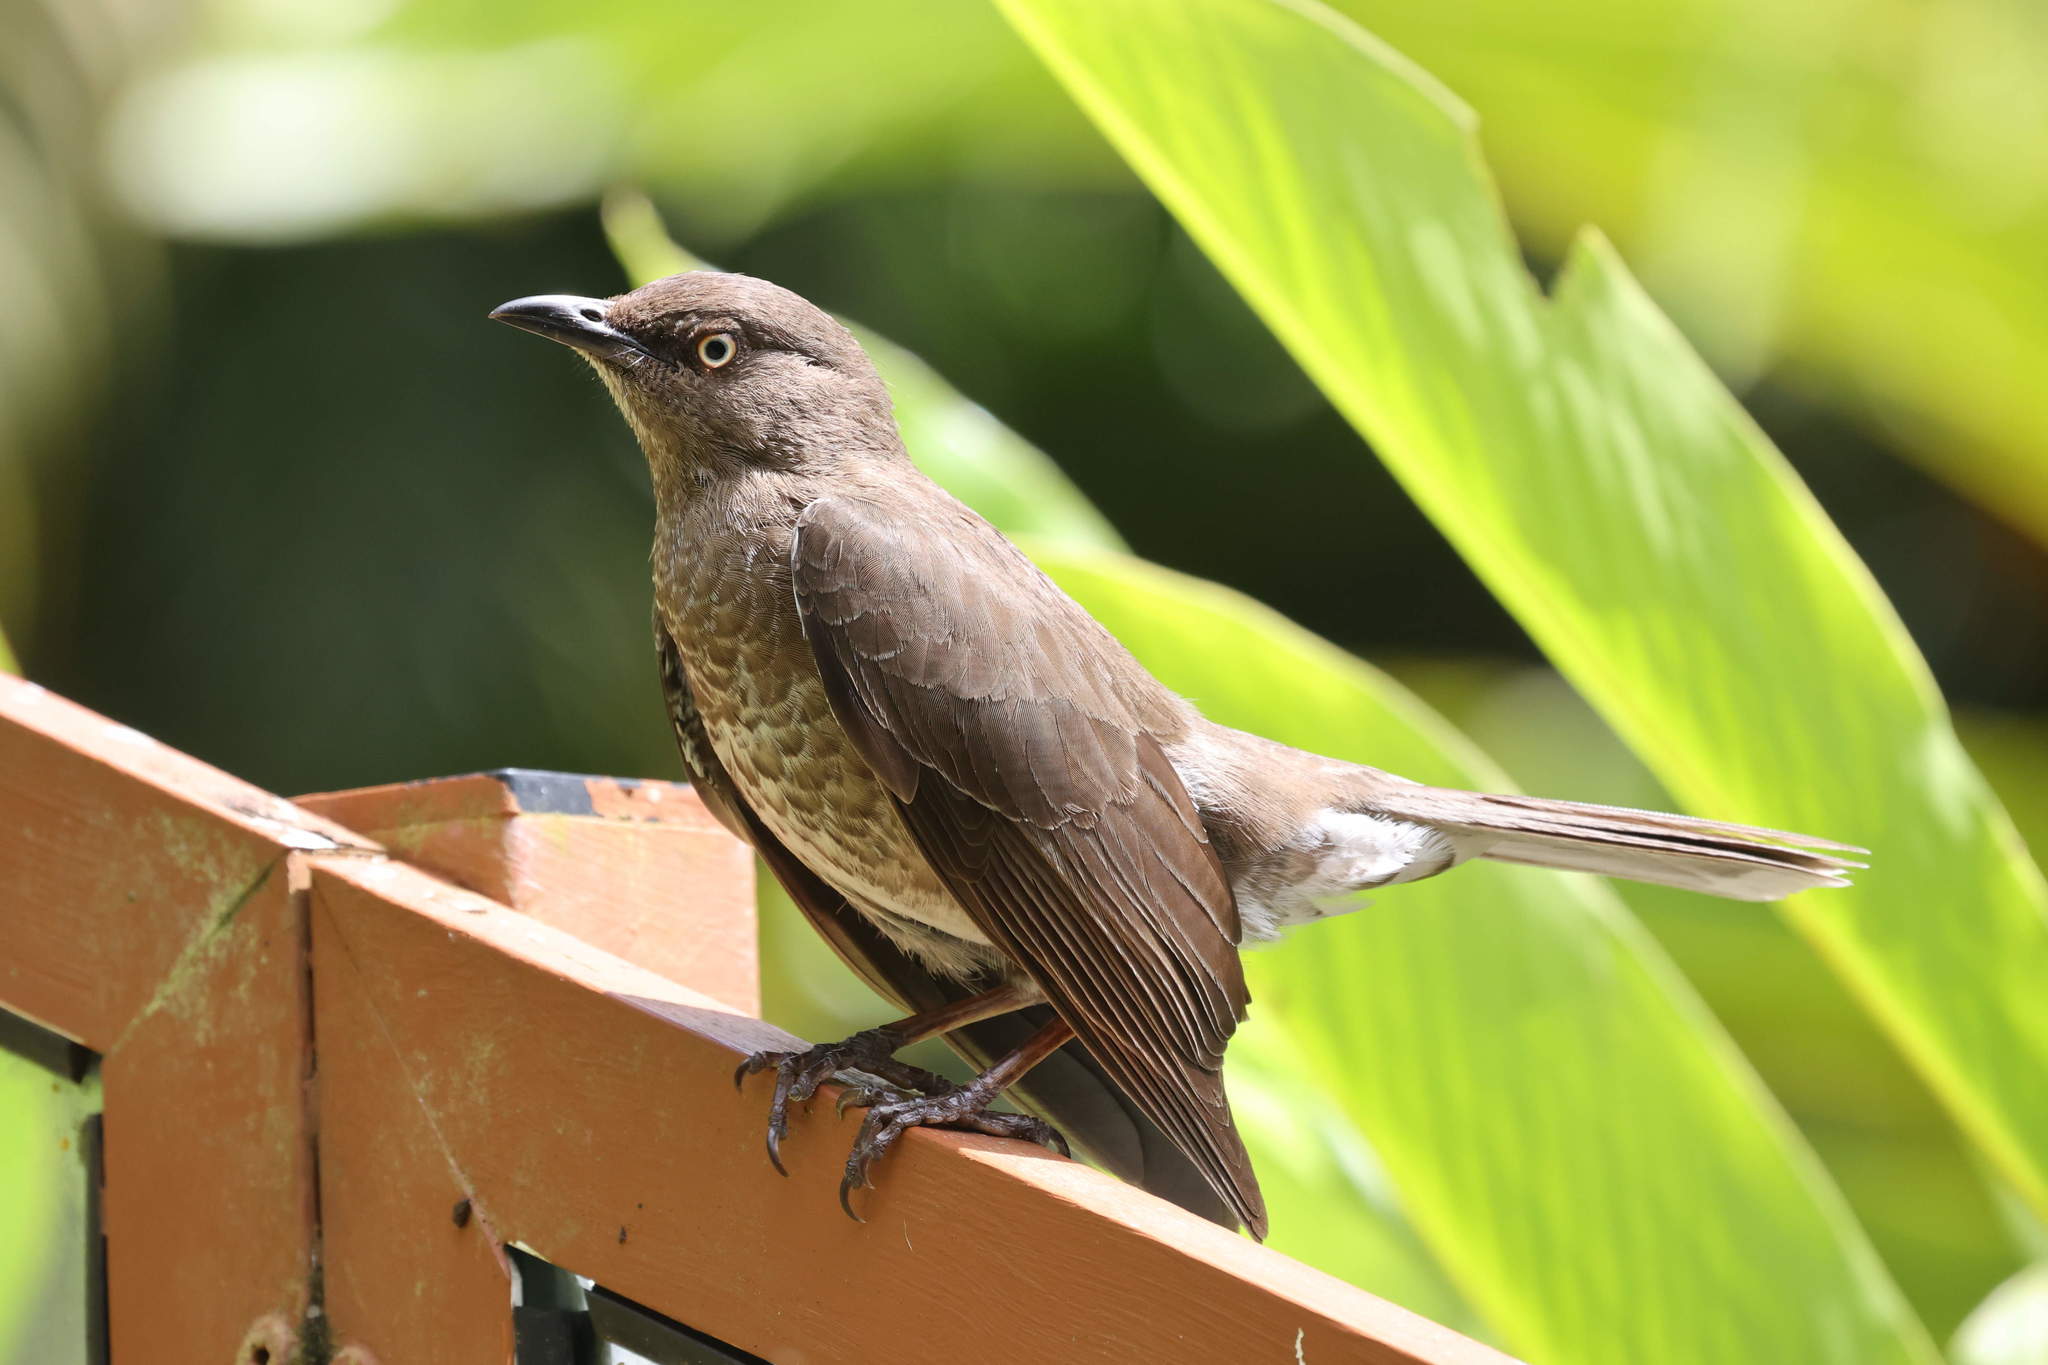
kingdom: Animalia
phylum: Chordata
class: Aves
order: Passeriformes
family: Mimidae
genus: Allenia
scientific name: Allenia fusca
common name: Scaly-breasted thrasher
